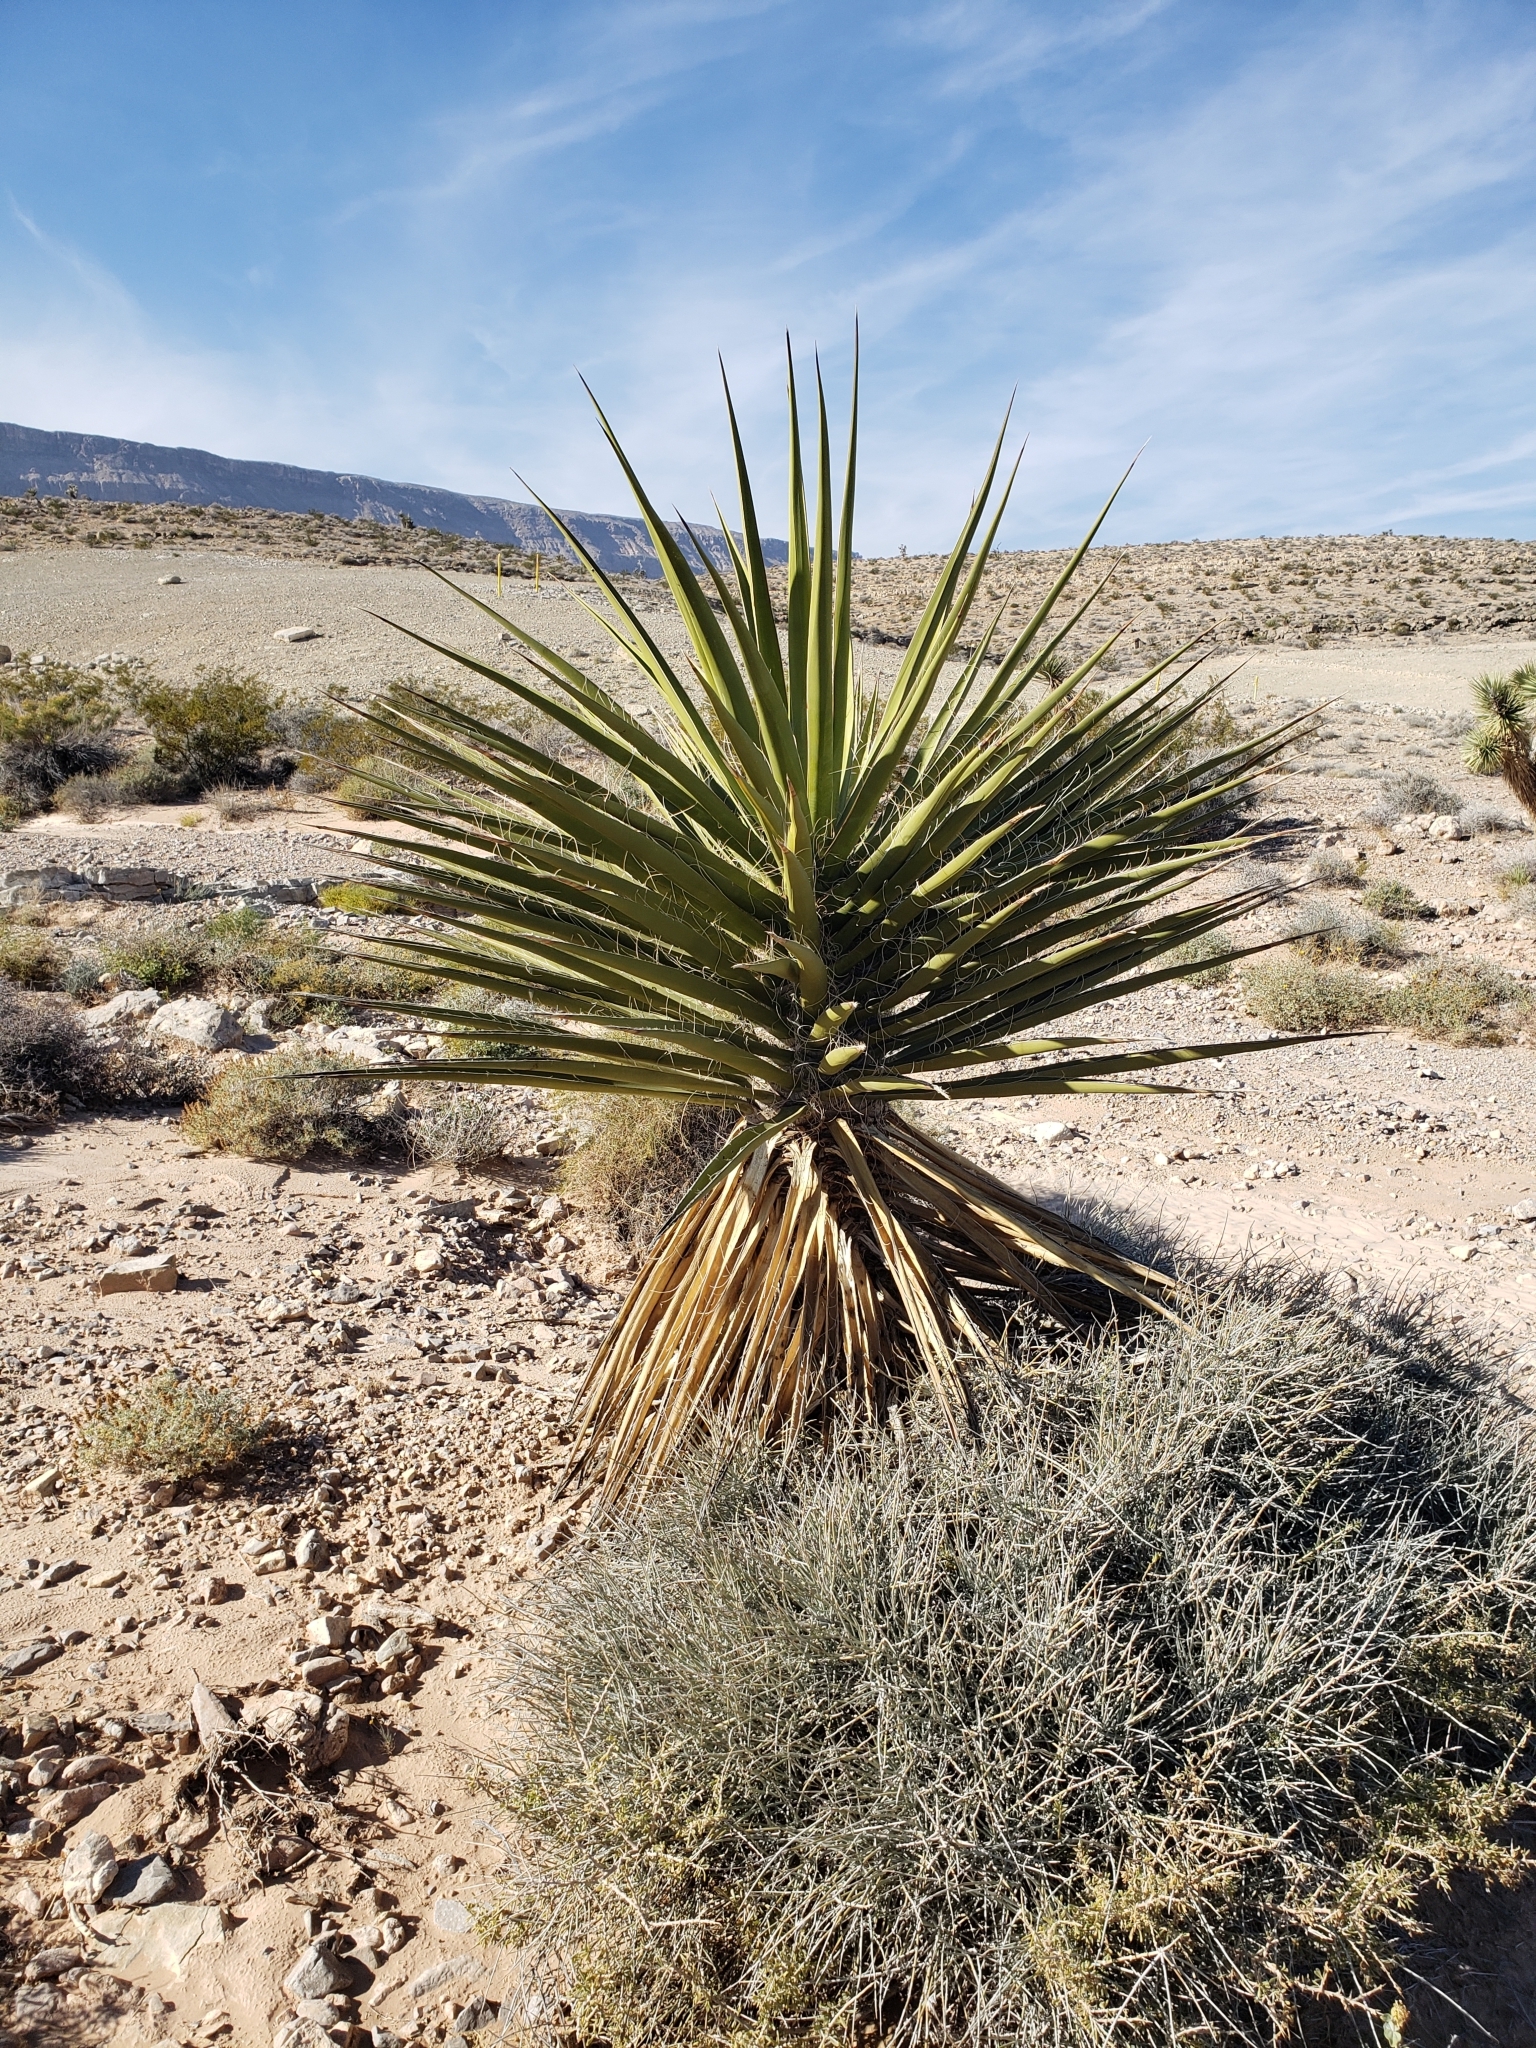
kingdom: Plantae
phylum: Tracheophyta
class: Liliopsida
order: Asparagales
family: Asparagaceae
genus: Yucca
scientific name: Yucca schidigera
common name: Mojave yucca
